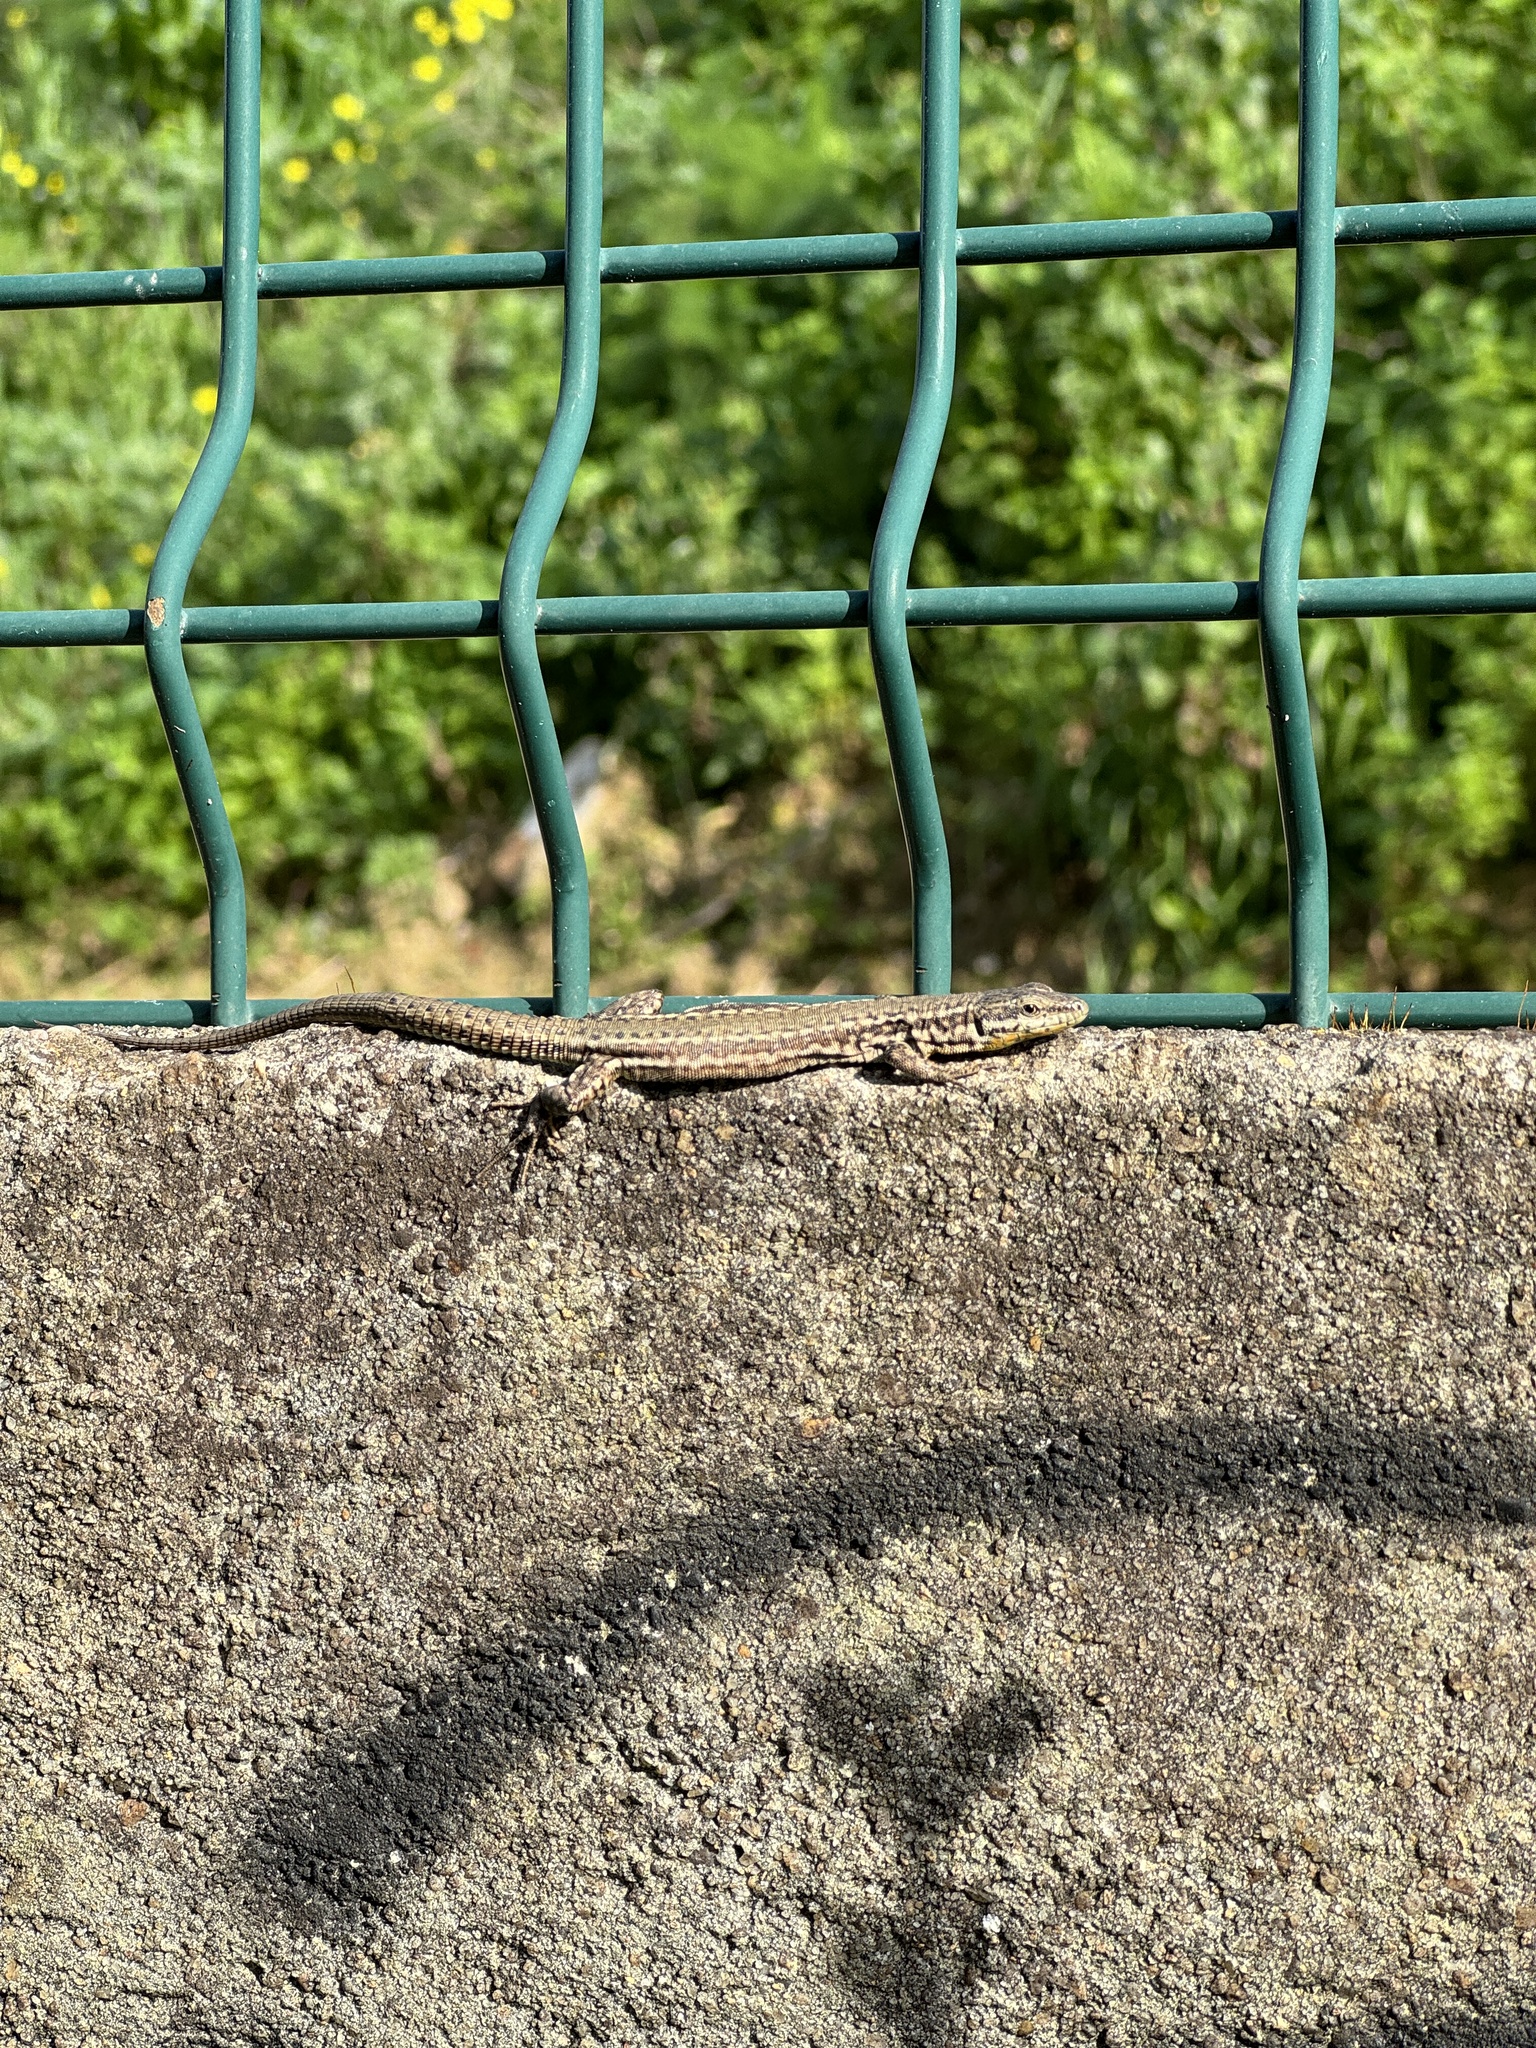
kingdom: Animalia
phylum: Chordata
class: Squamata
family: Lacertidae
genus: Podarcis
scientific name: Podarcis virescens
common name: Geniez’s wall lizard
